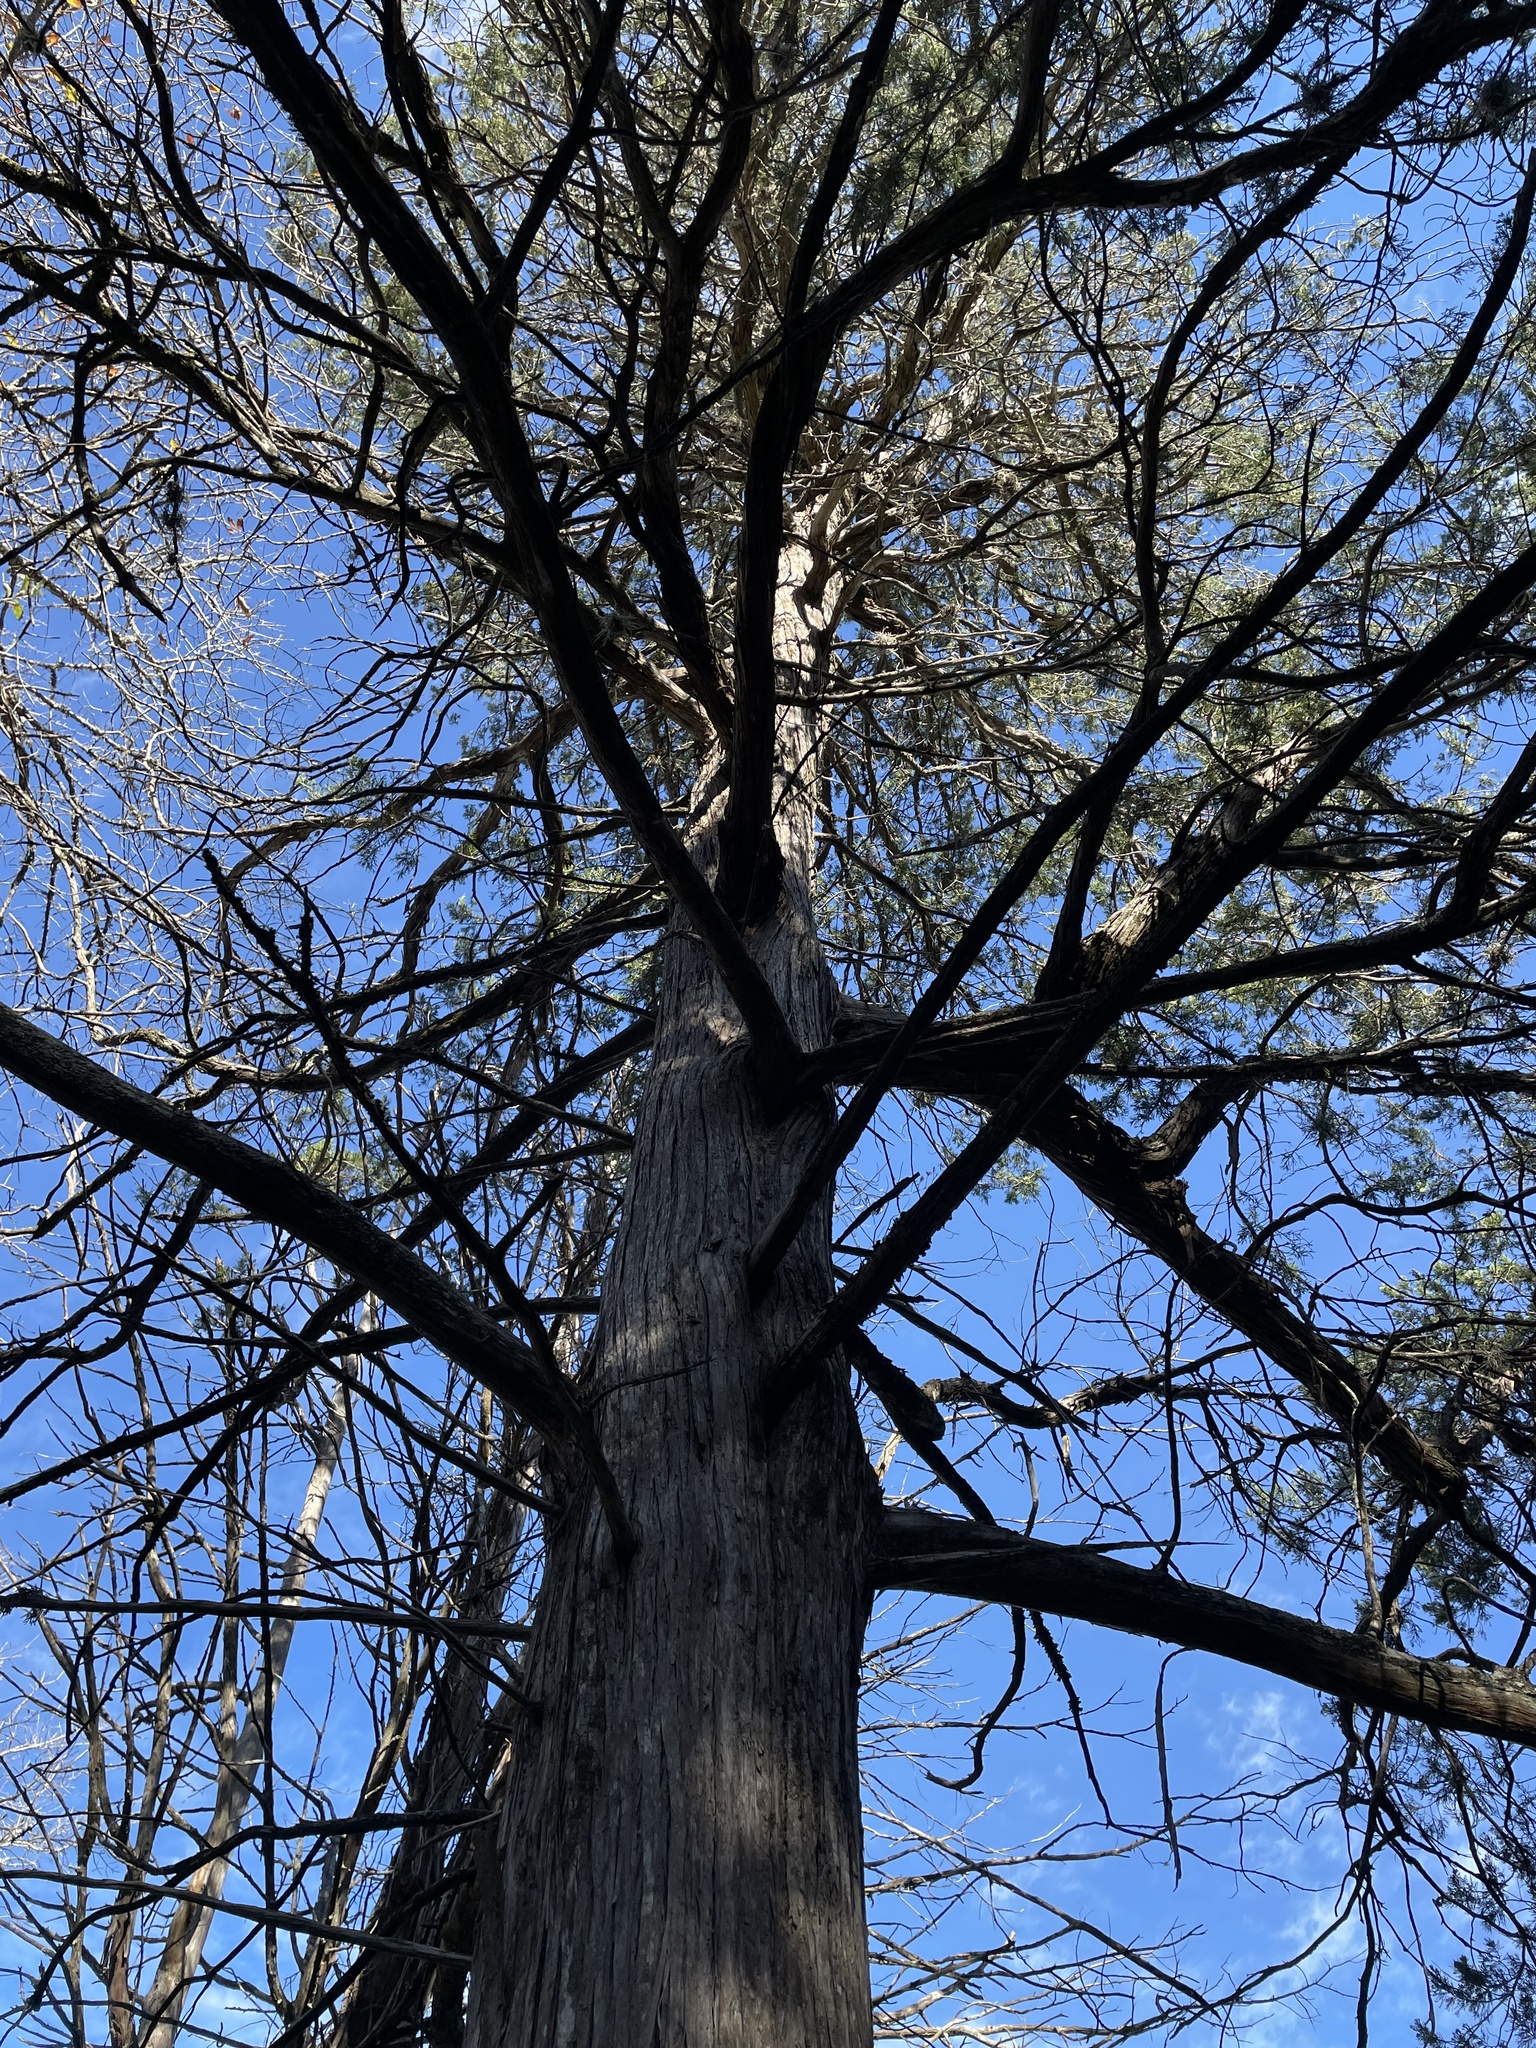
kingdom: Plantae
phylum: Tracheophyta
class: Pinopsida
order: Pinales
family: Cupressaceae
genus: Juniperus
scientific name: Juniperus virginiana
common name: Red juniper
